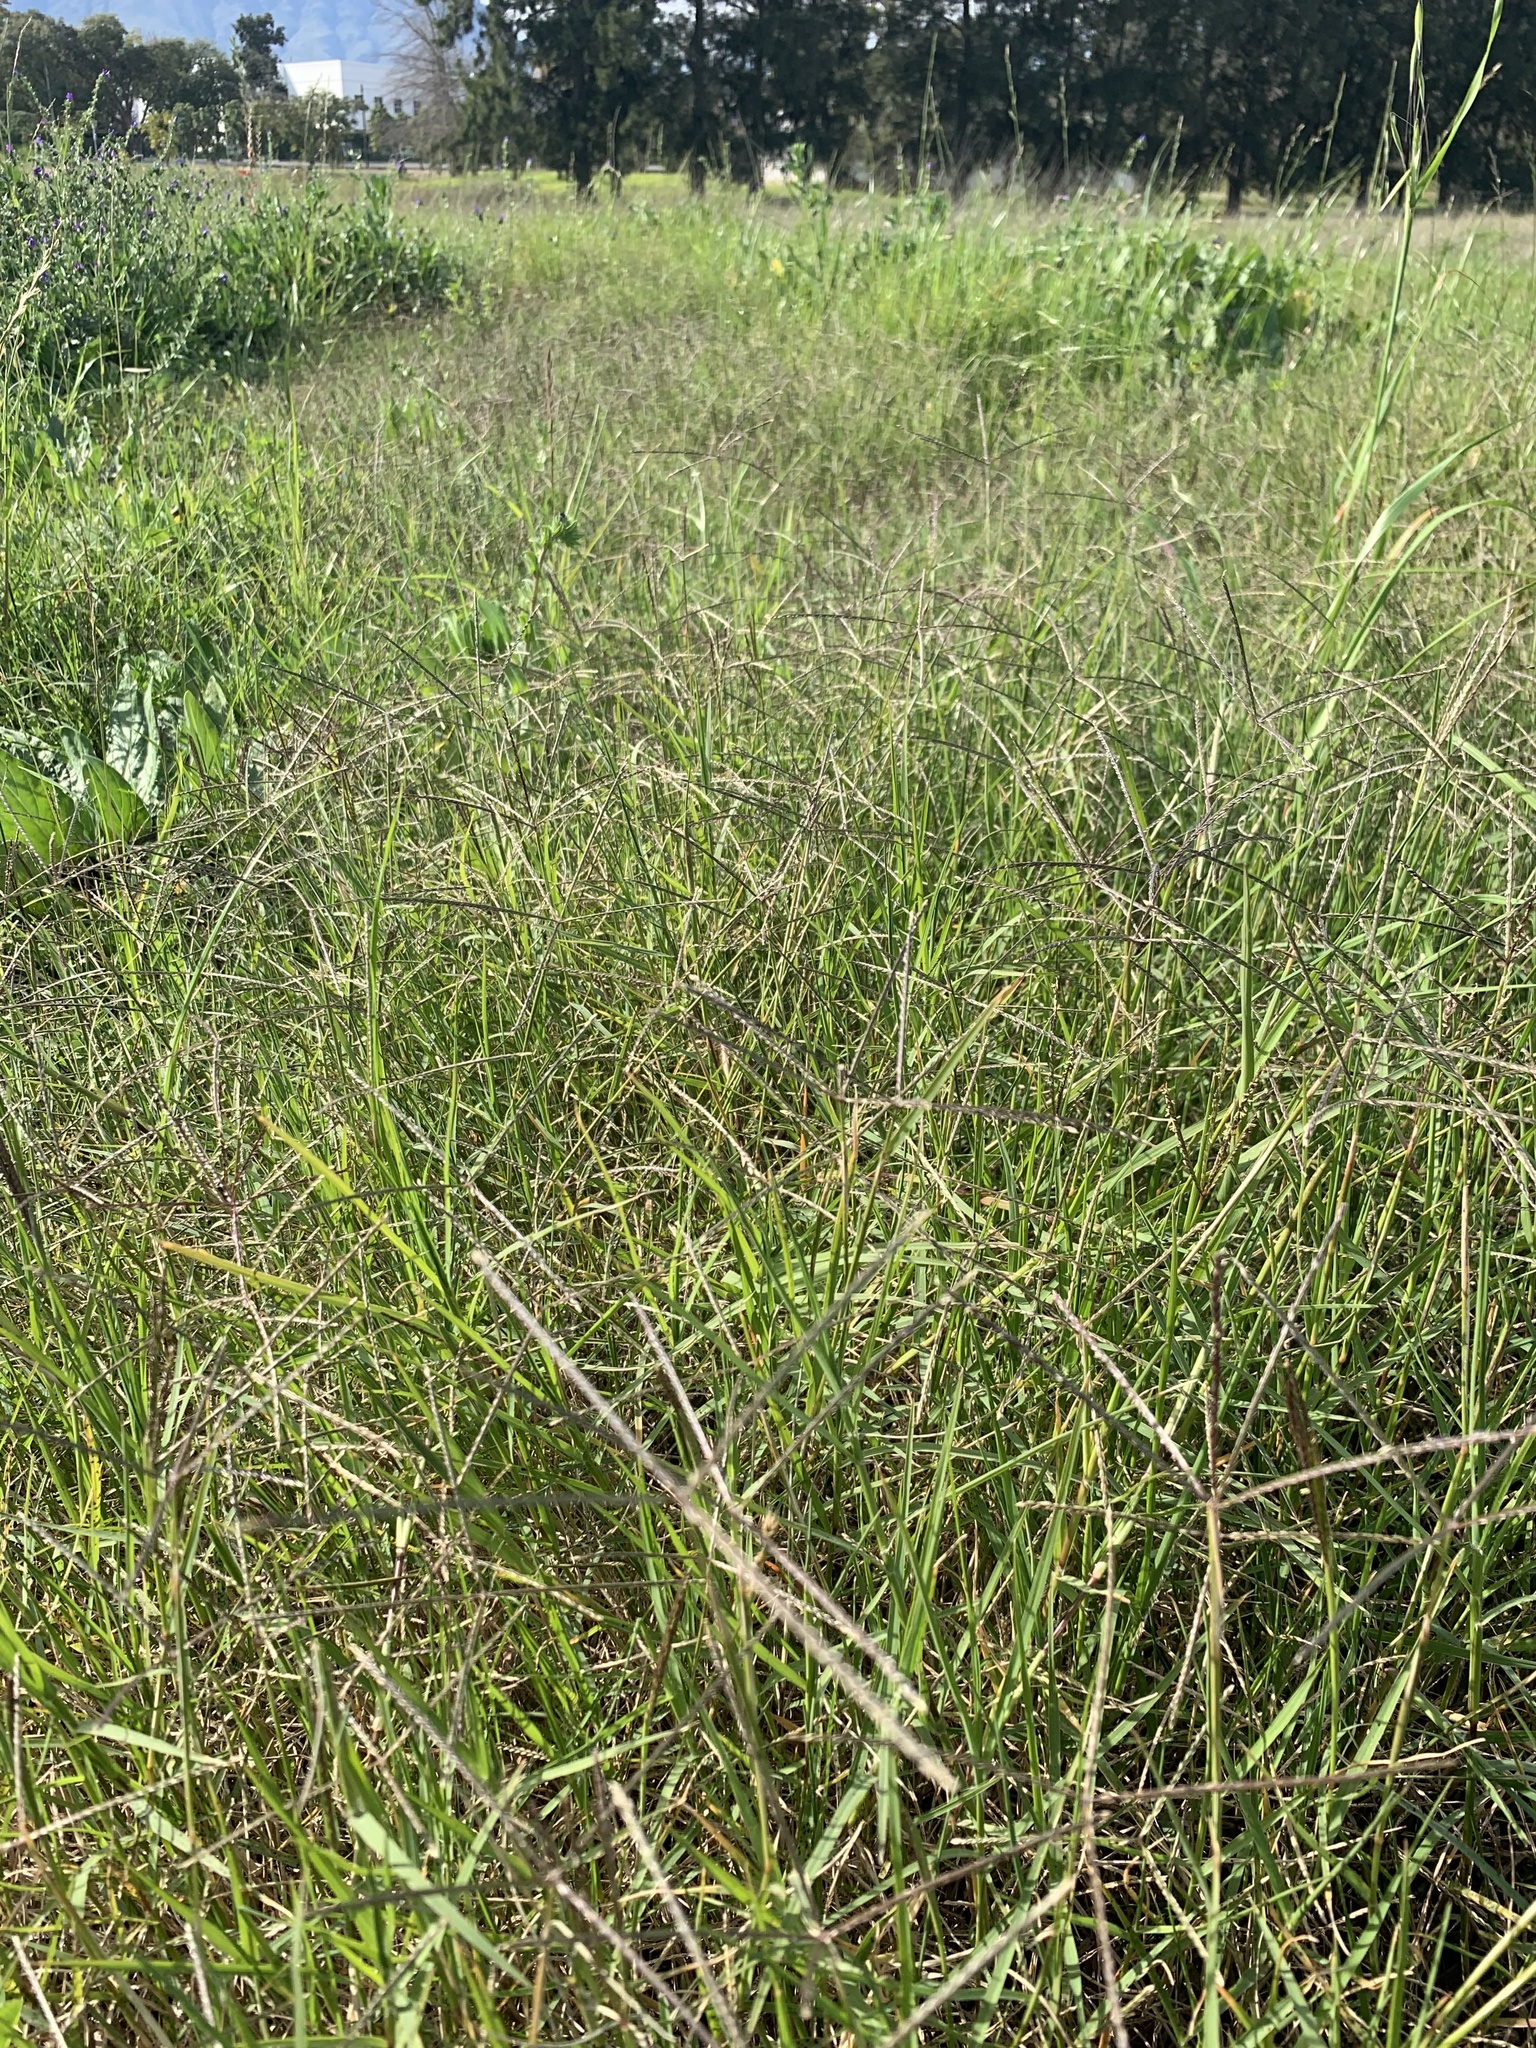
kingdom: Plantae
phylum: Tracheophyta
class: Liliopsida
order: Poales
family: Poaceae
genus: Cynodon
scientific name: Cynodon dactylon
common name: Bermuda grass
